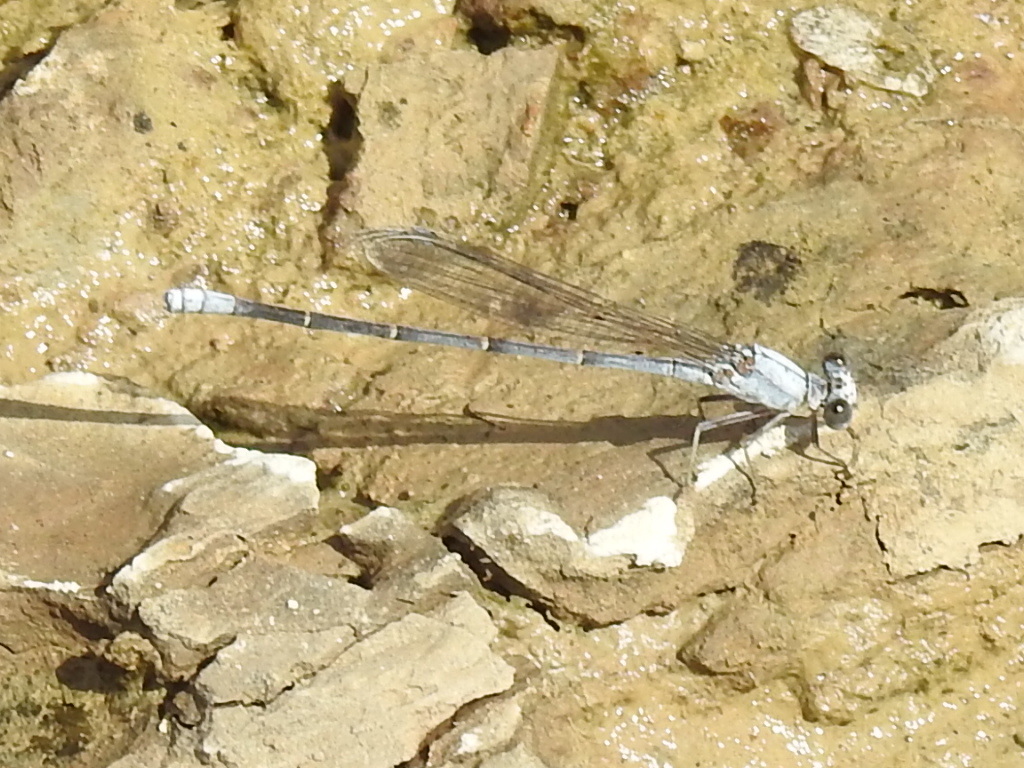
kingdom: Animalia
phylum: Arthropoda
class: Insecta
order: Odonata
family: Coenagrionidae
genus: Argia
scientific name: Argia moesta
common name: Powdered dancer
